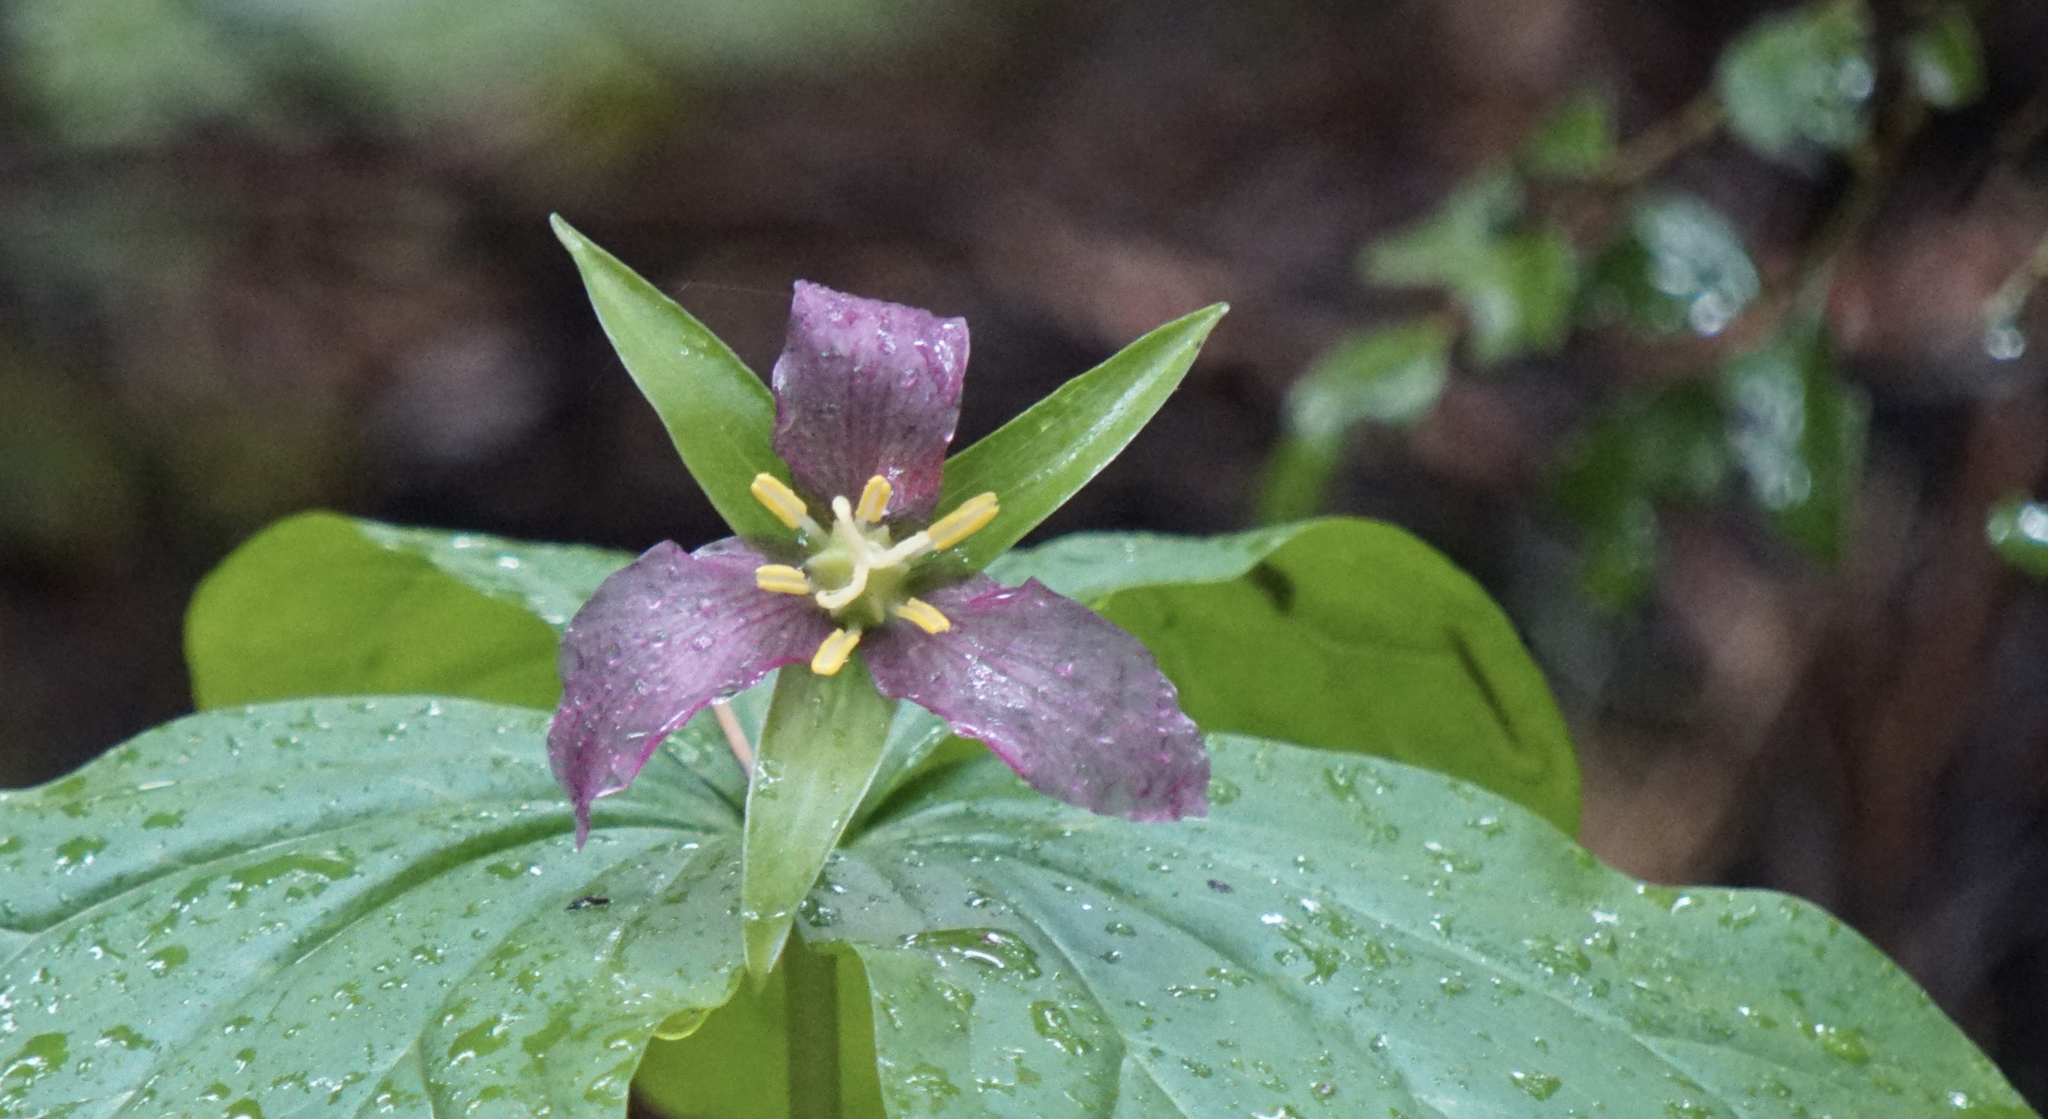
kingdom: Plantae
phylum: Tracheophyta
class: Liliopsida
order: Liliales
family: Melanthiaceae
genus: Trillium
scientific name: Trillium ovatum
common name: Pacific trillium
